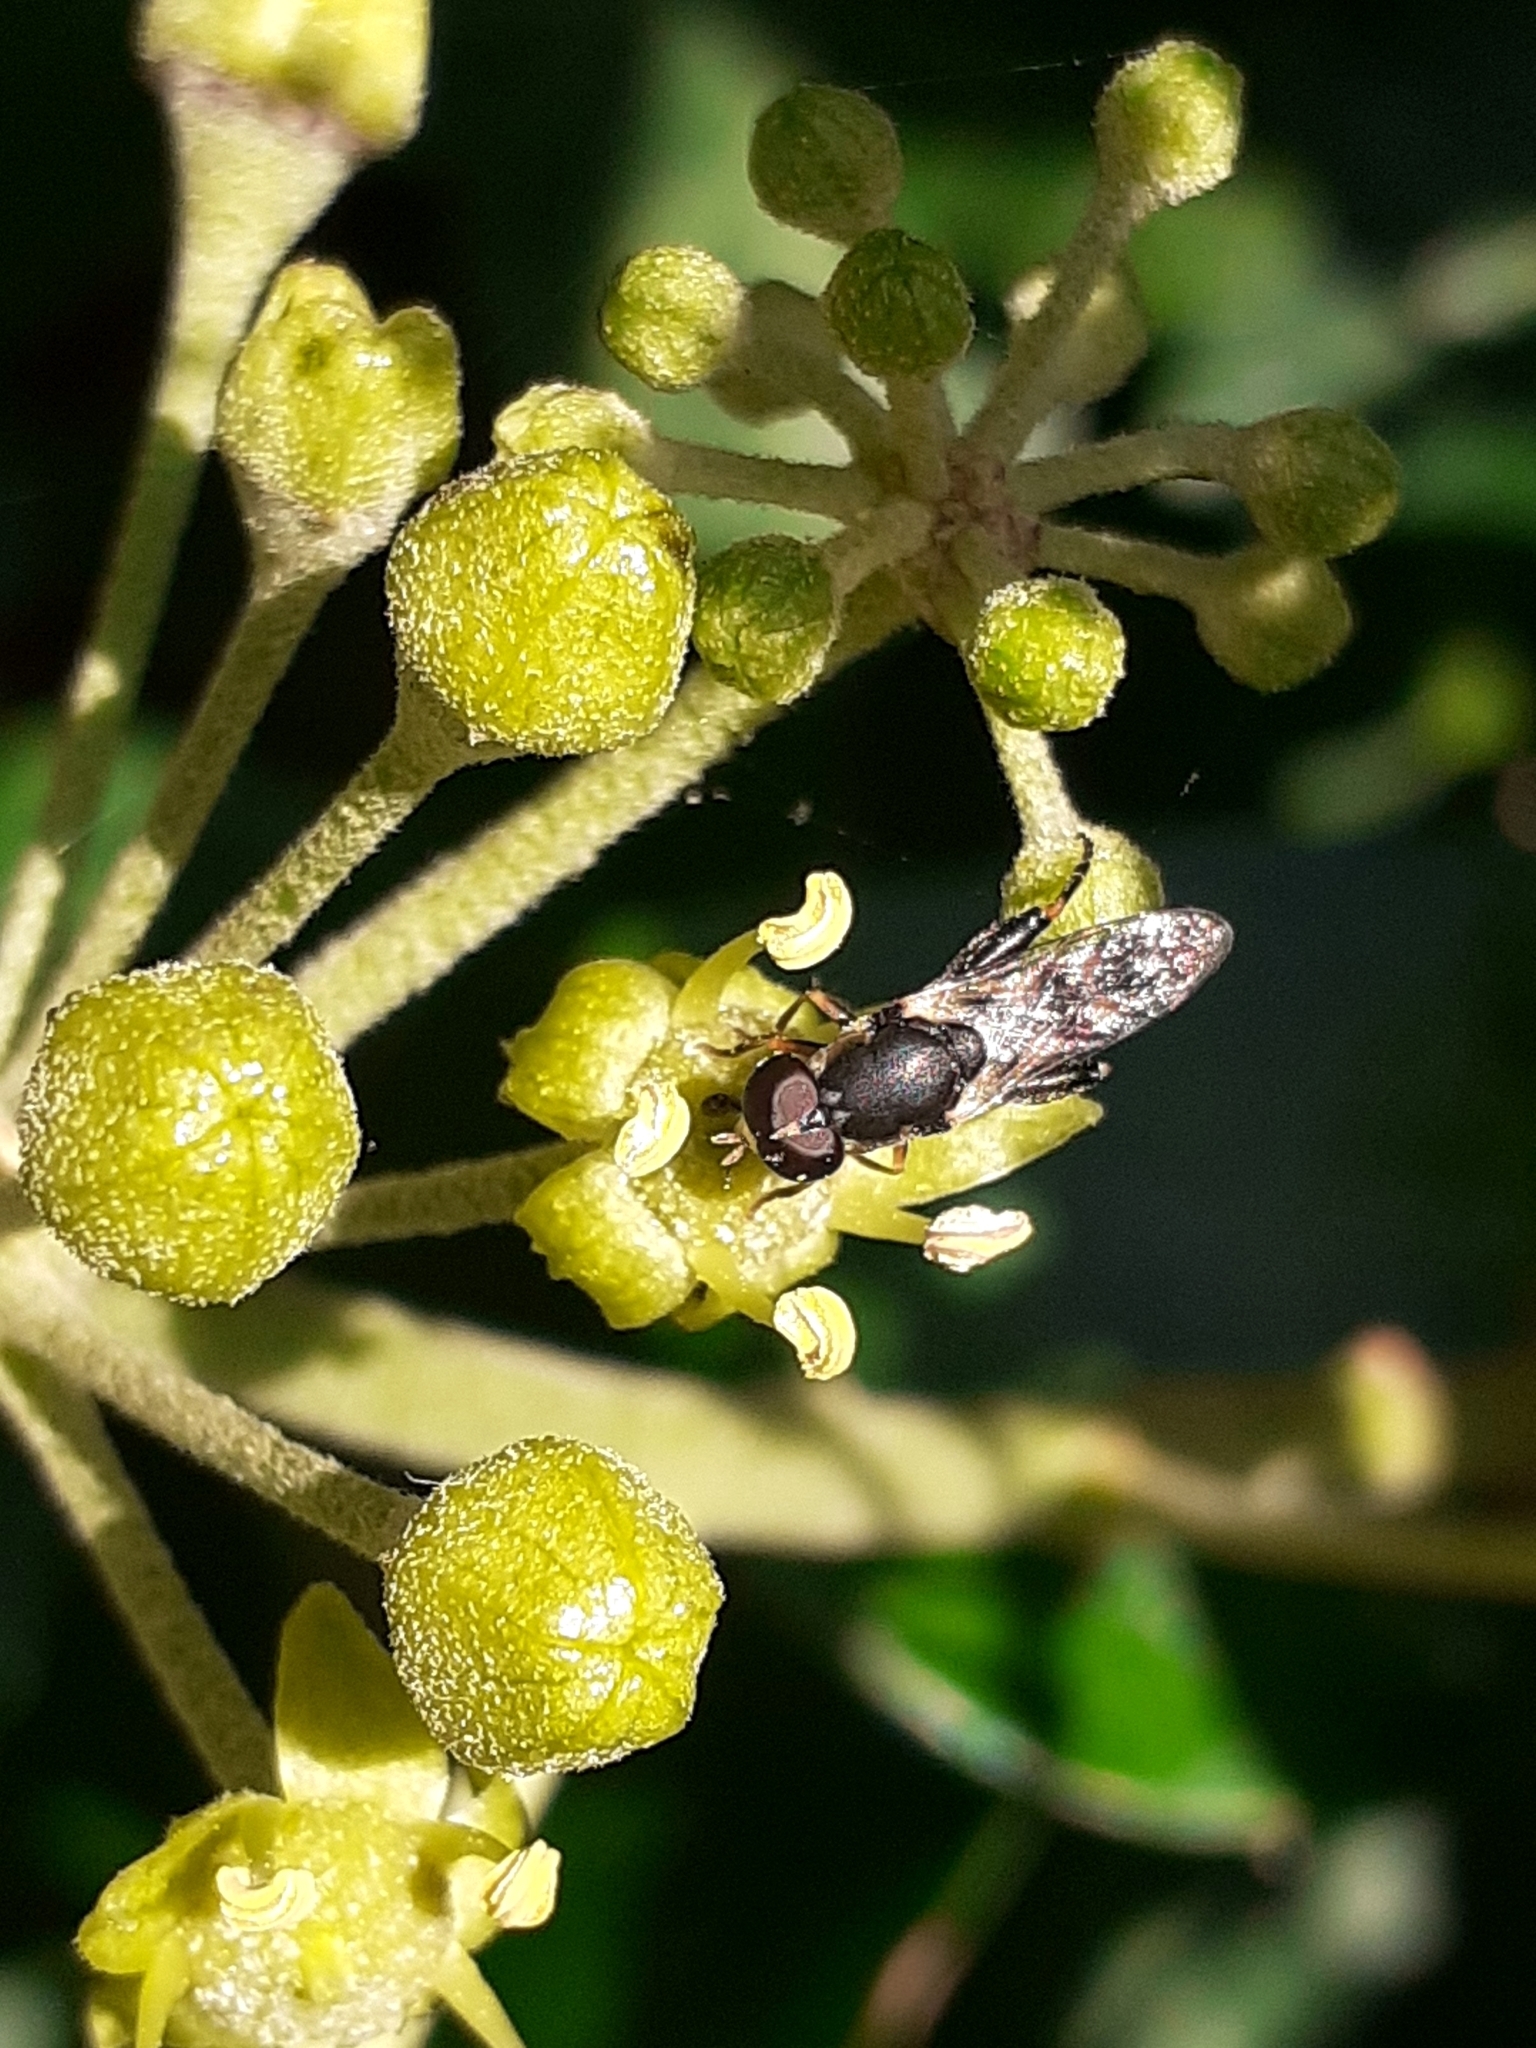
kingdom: Animalia
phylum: Arthropoda
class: Insecta
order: Diptera
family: Syrphidae
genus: Syritta
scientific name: Syritta pipiens
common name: Hover fly
